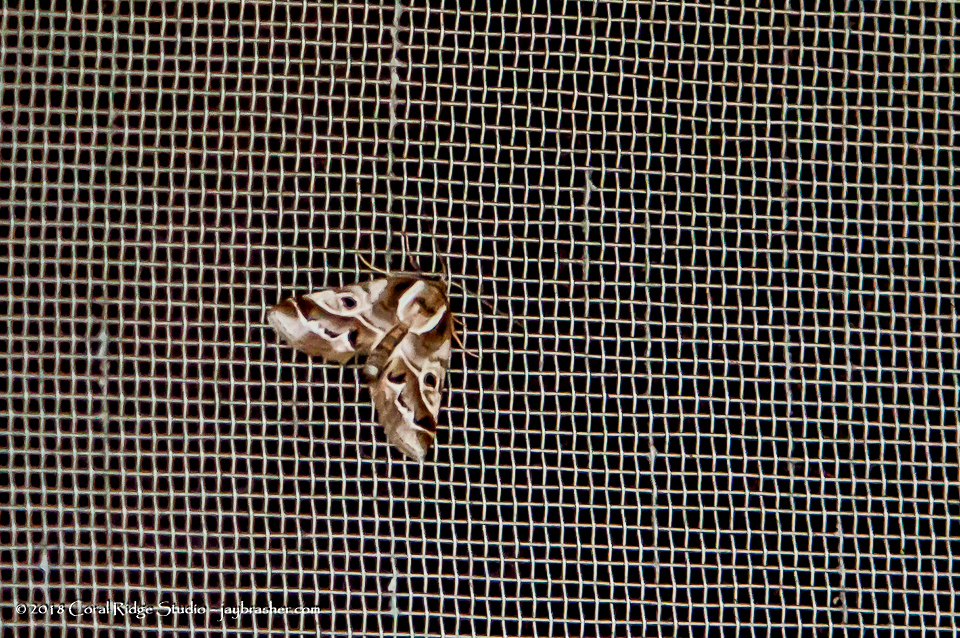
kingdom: Animalia
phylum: Arthropoda
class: Insecta
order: Lepidoptera
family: Nolidae
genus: Baileya
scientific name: Baileya doubledayi
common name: Doubleday's baileya moth
